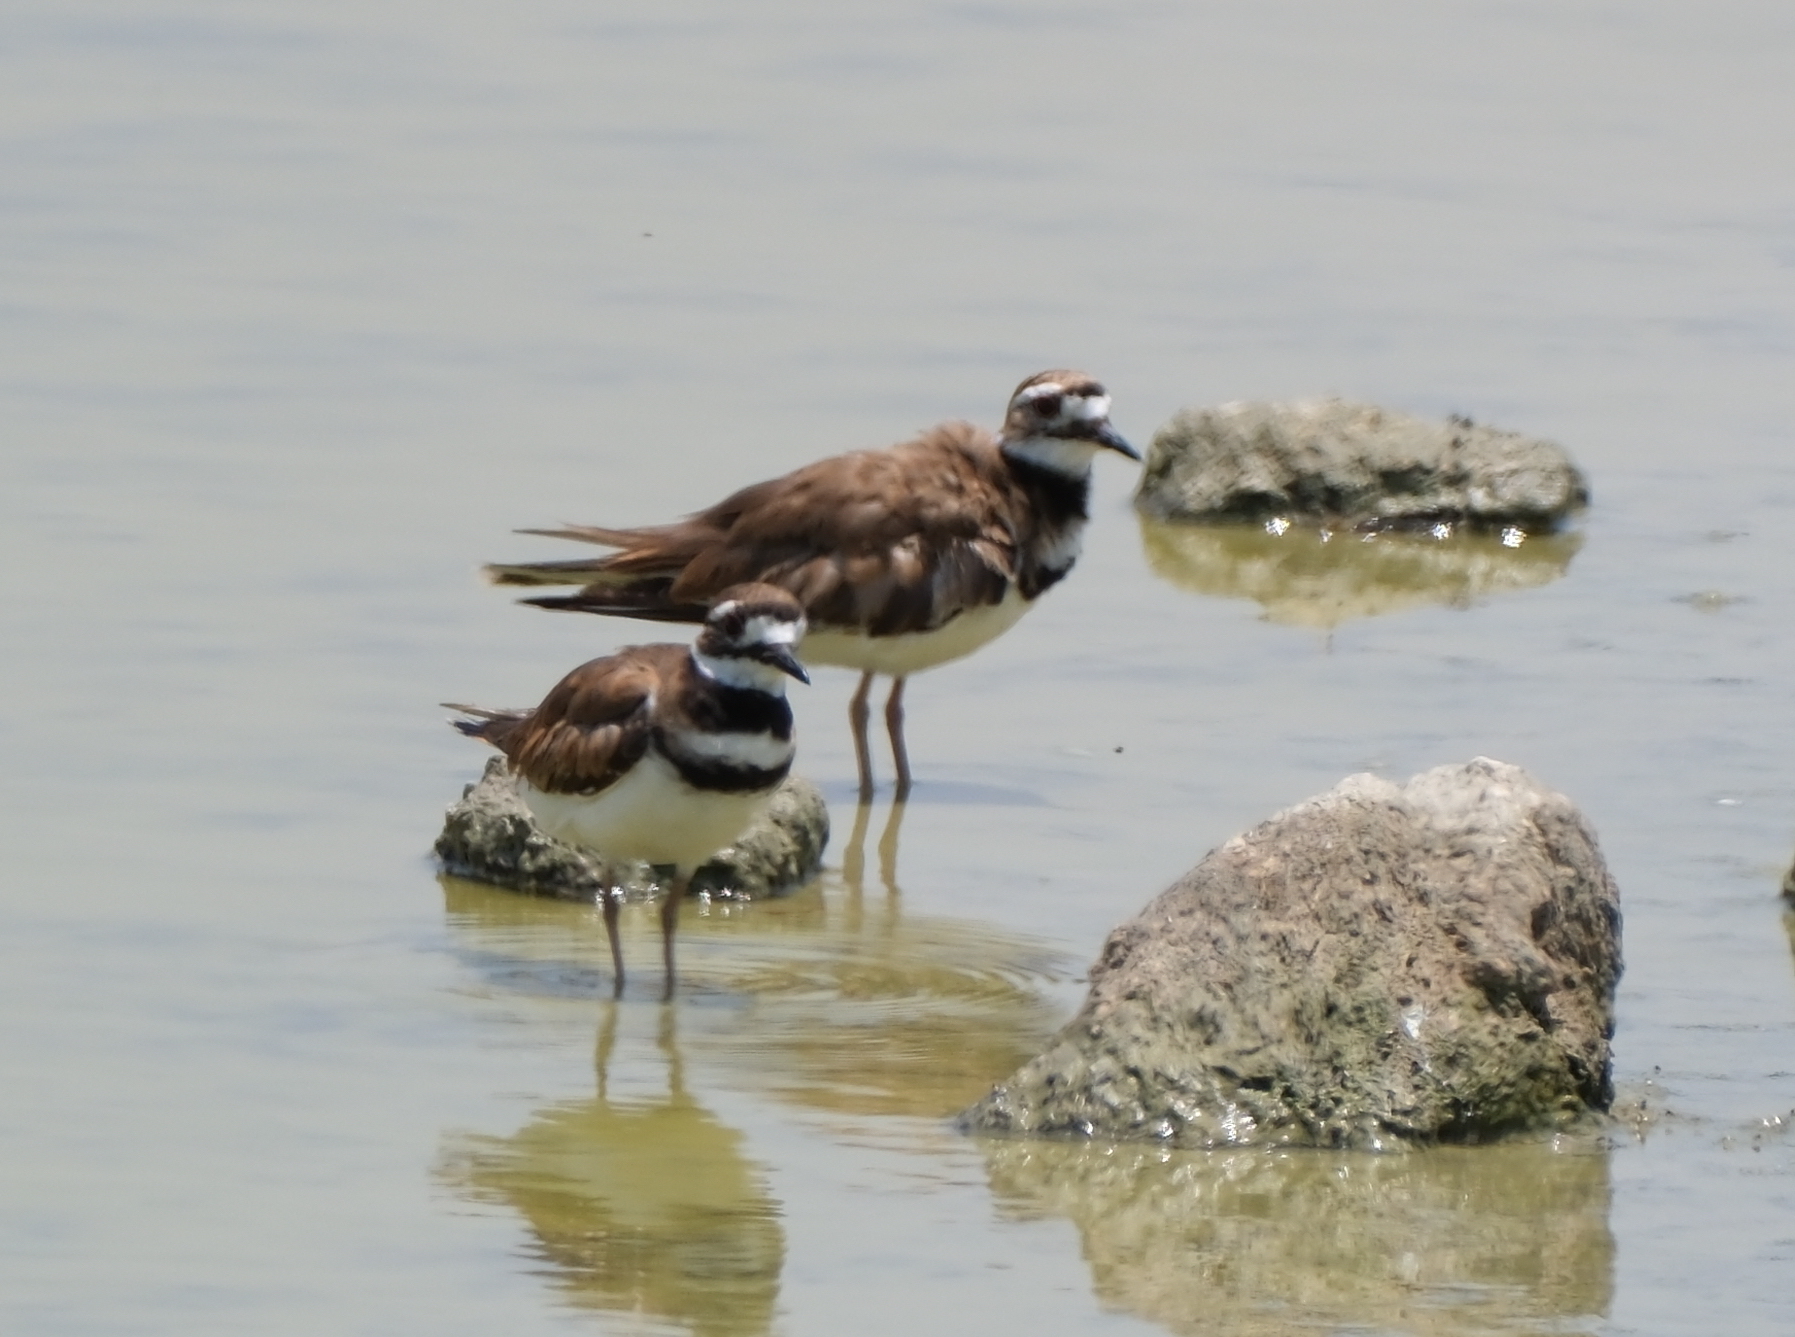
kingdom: Animalia
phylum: Chordata
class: Aves
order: Charadriiformes
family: Charadriidae
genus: Charadrius
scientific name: Charadrius vociferus
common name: Killdeer
